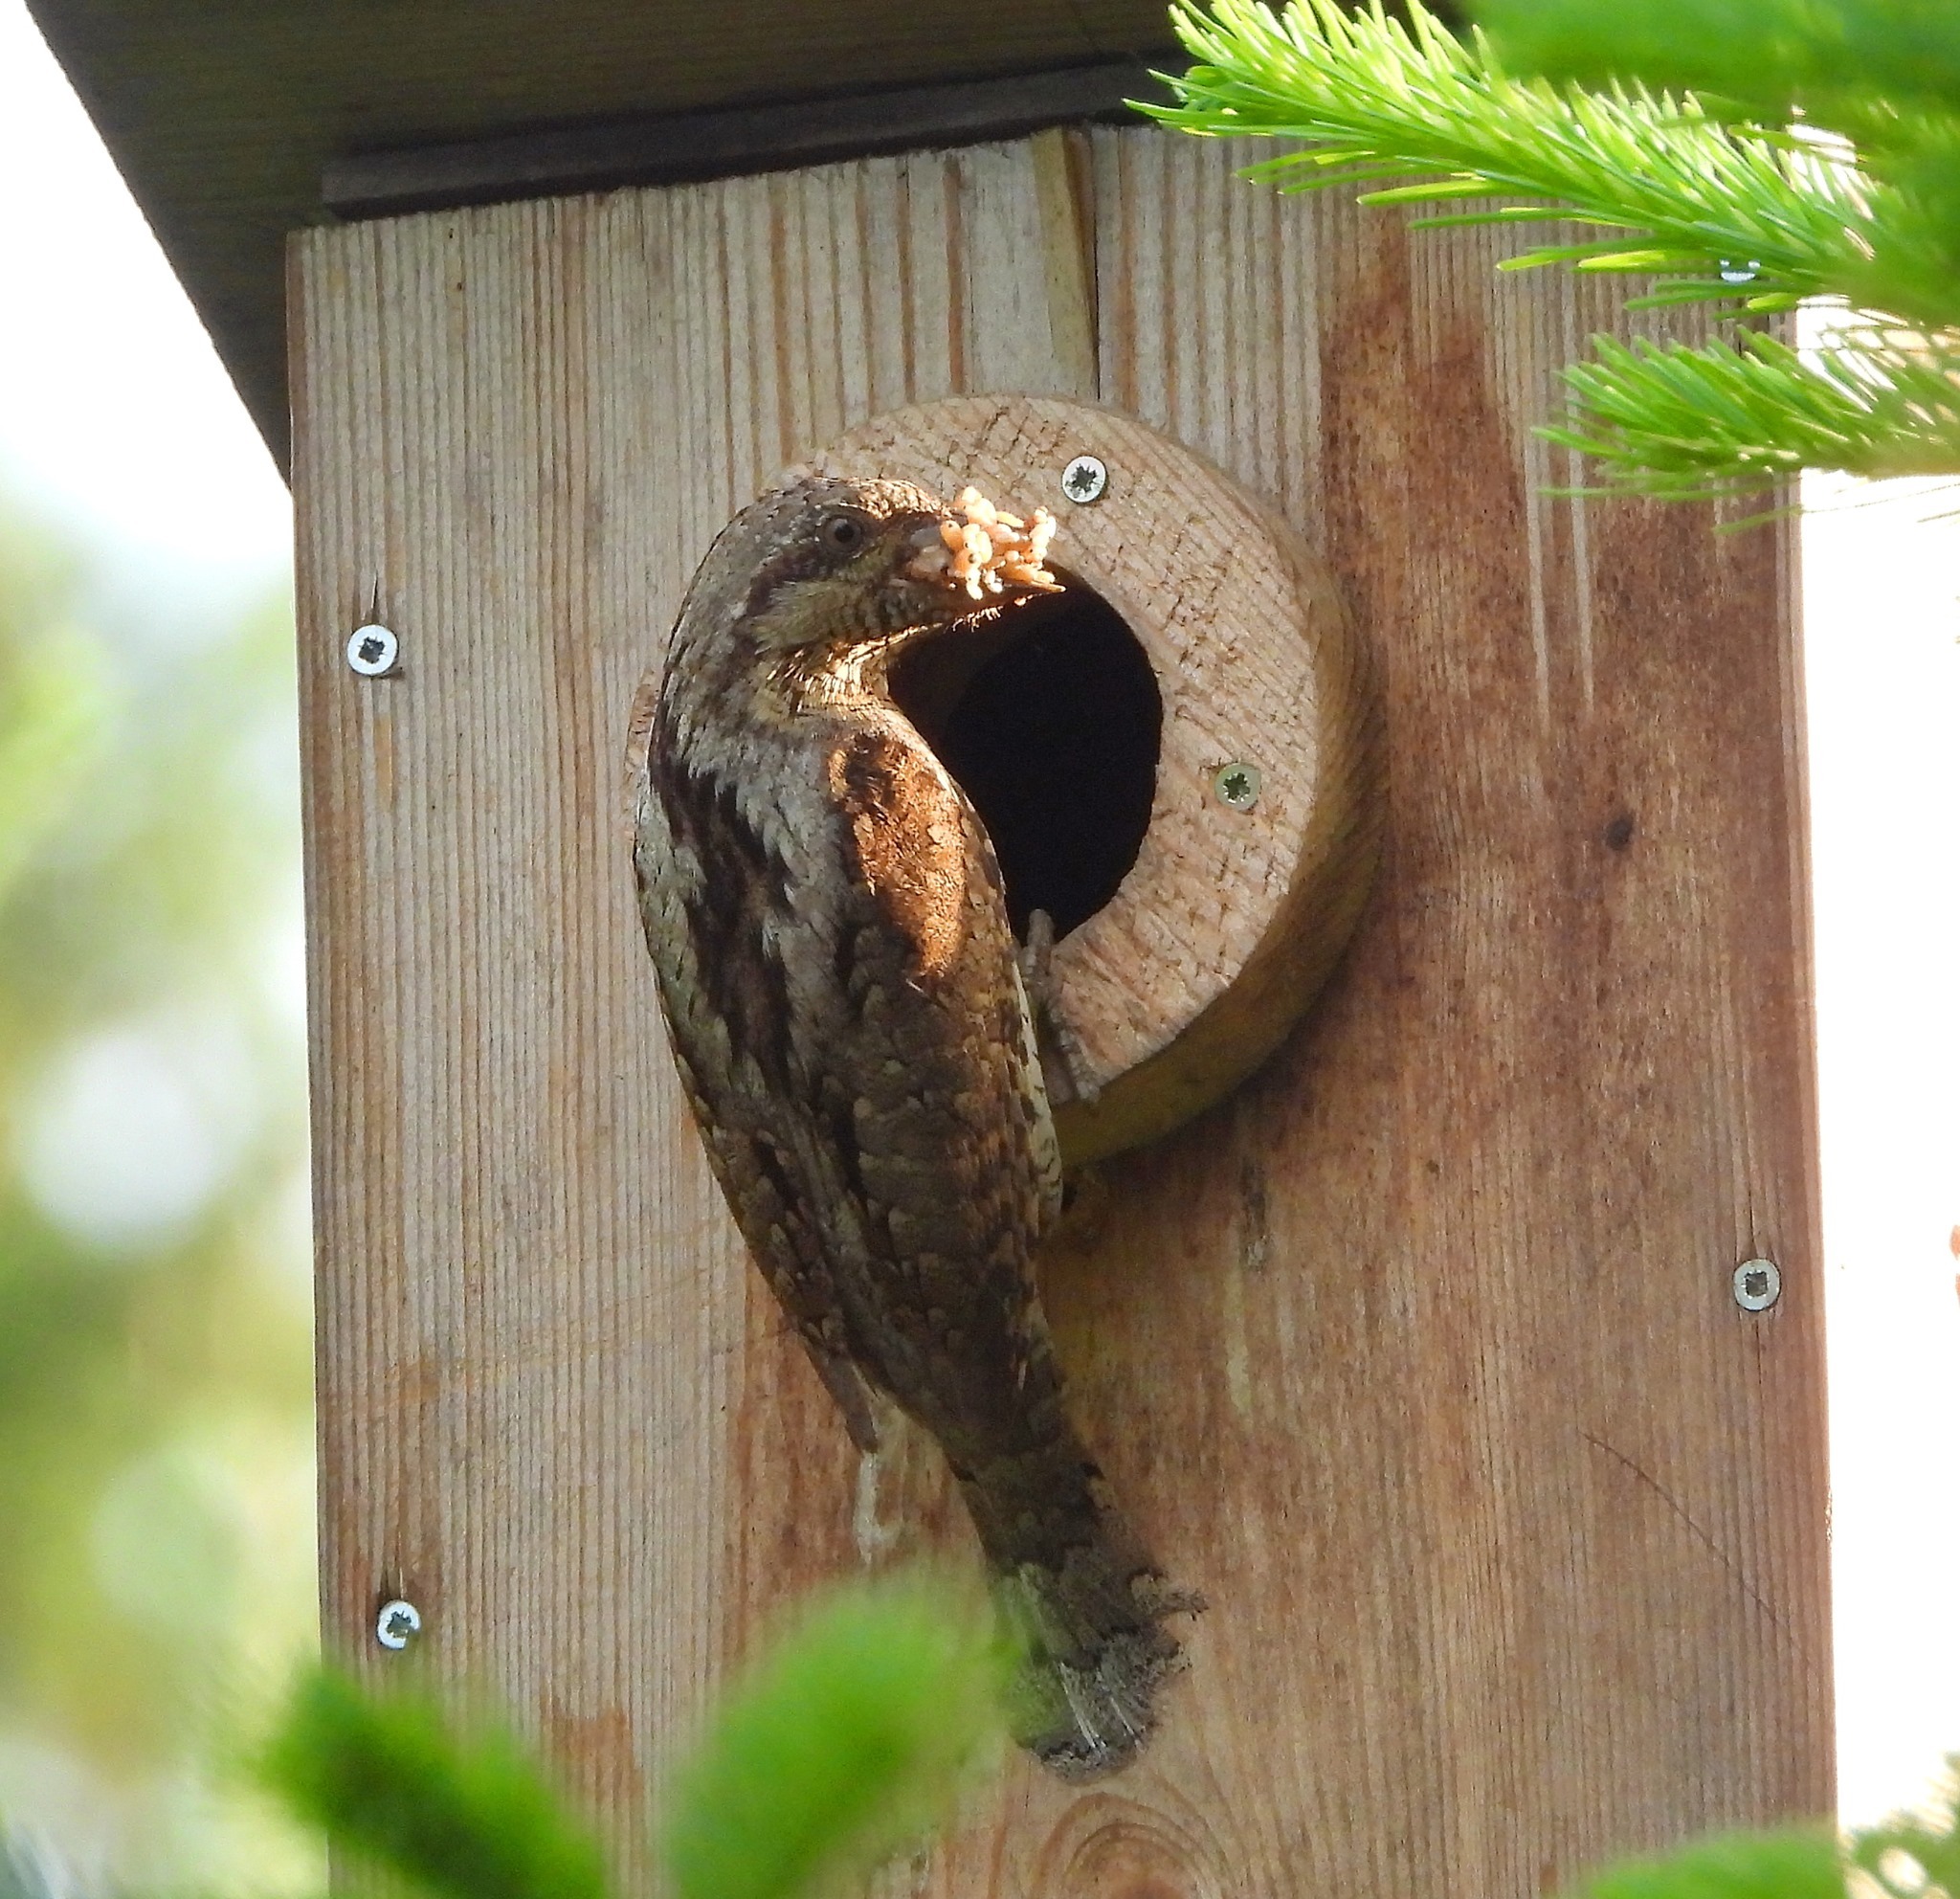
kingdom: Animalia
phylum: Chordata
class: Aves
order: Piciformes
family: Picidae
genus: Jynx
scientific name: Jynx torquilla
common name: Eurasian wryneck
